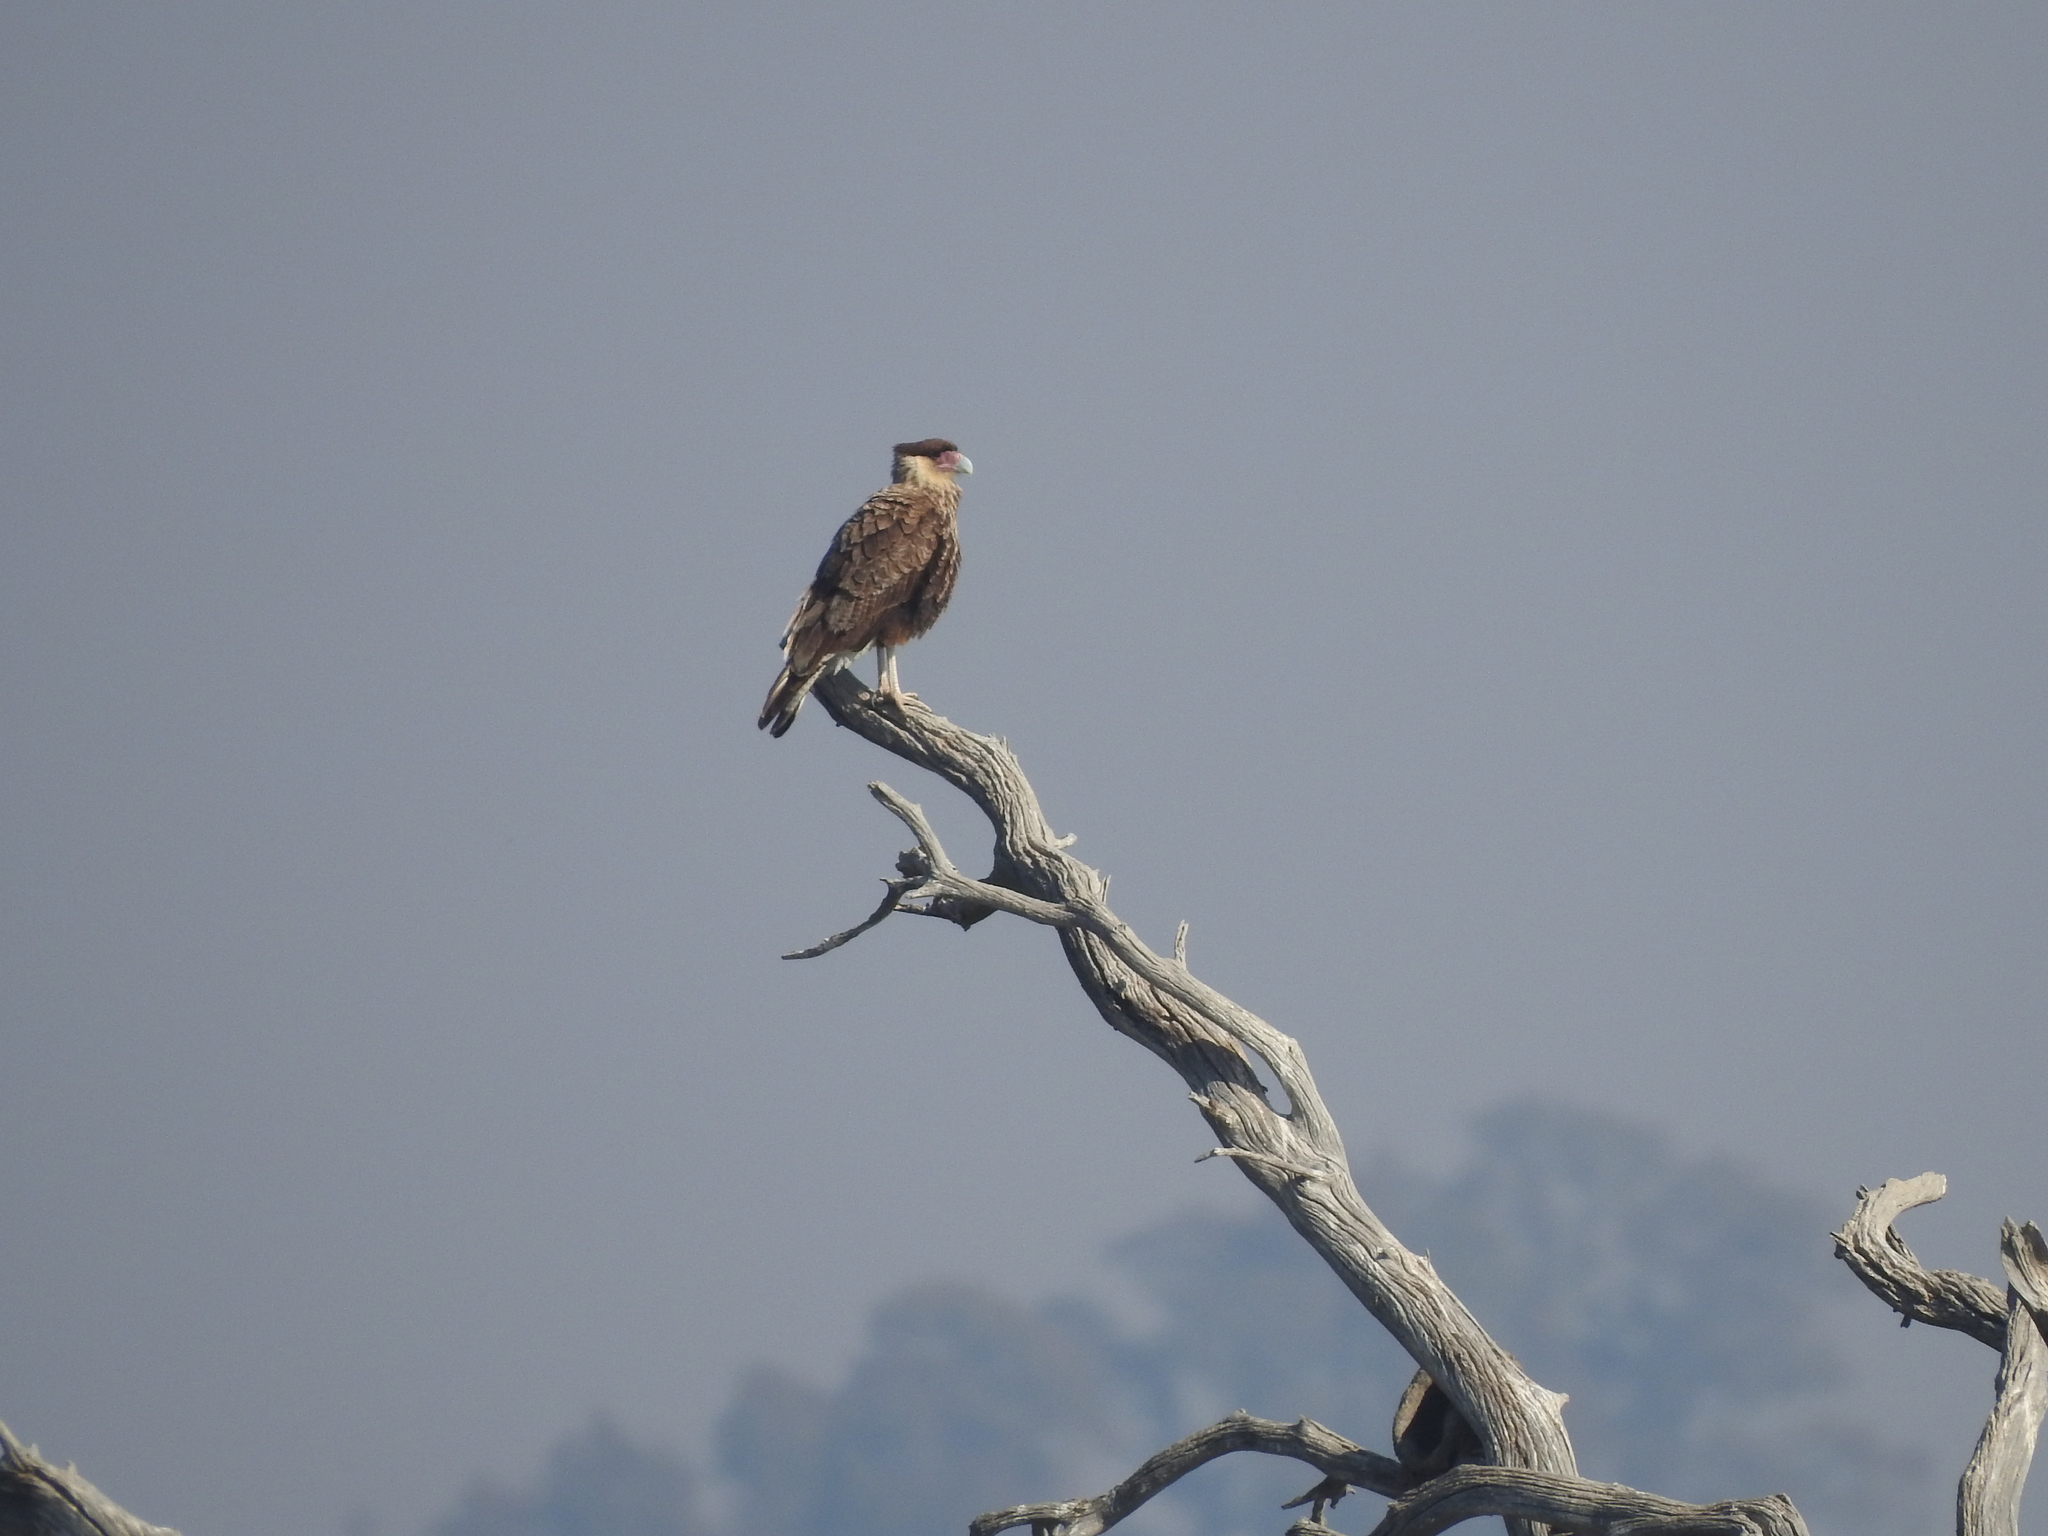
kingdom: Animalia
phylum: Chordata
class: Aves
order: Falconiformes
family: Falconidae
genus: Caracara
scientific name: Caracara plancus
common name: Southern caracara
